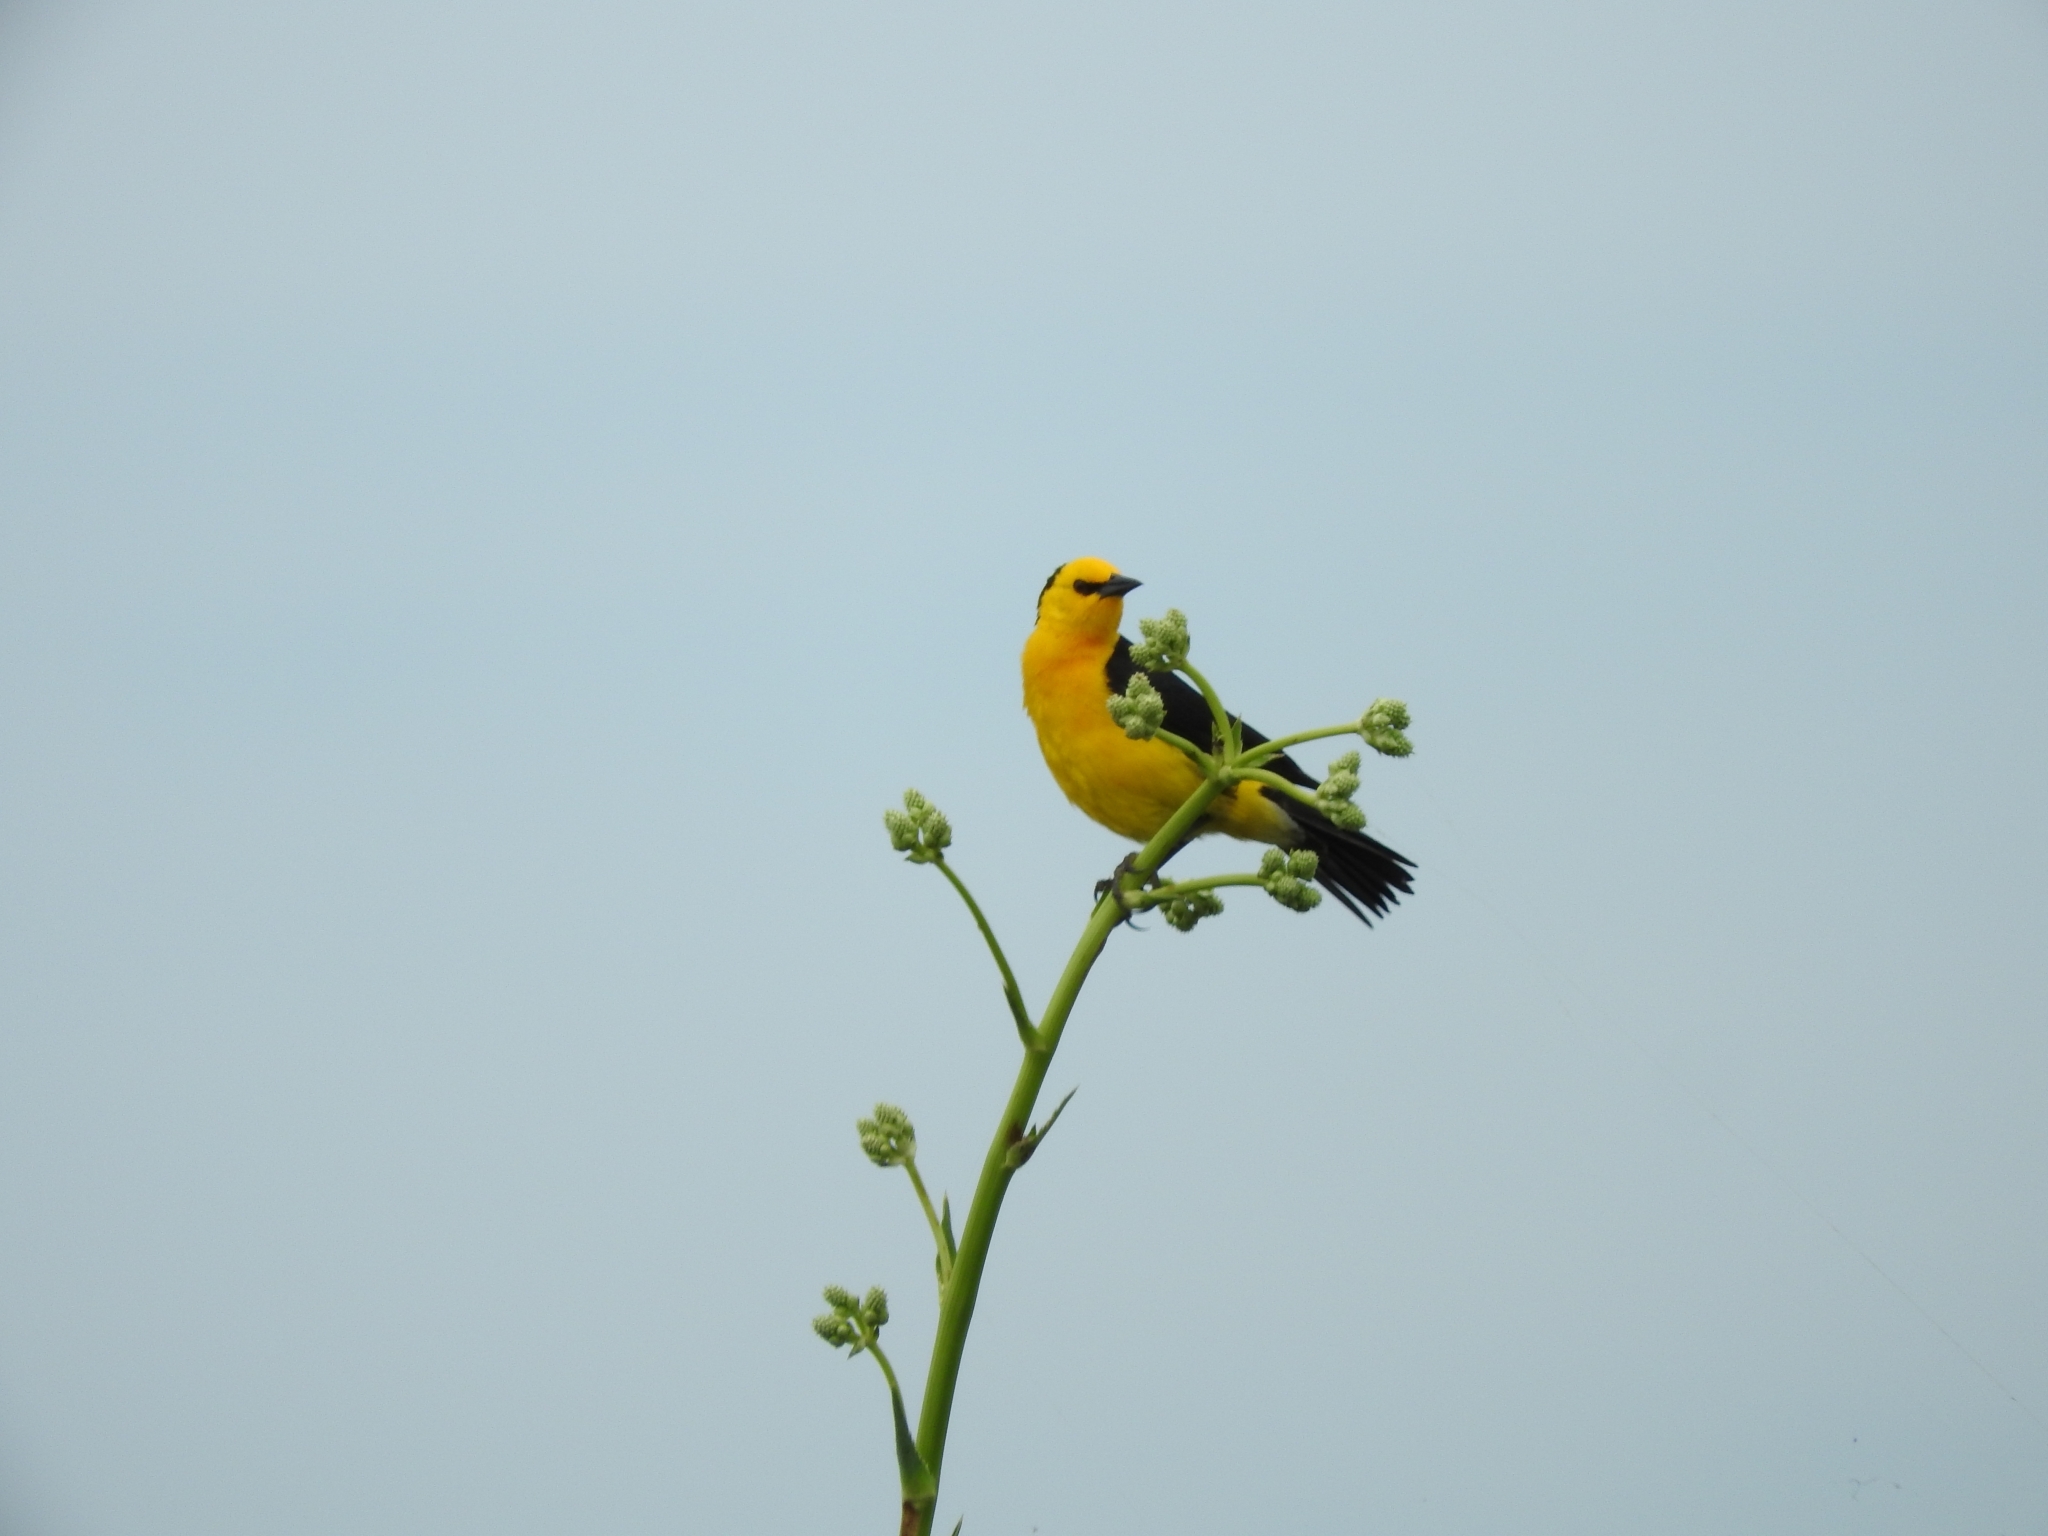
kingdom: Animalia
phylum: Chordata
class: Aves
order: Passeriformes
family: Icteridae
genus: Xanthopsar
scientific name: Xanthopsar flavus
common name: Saffron-cowled blackbird
